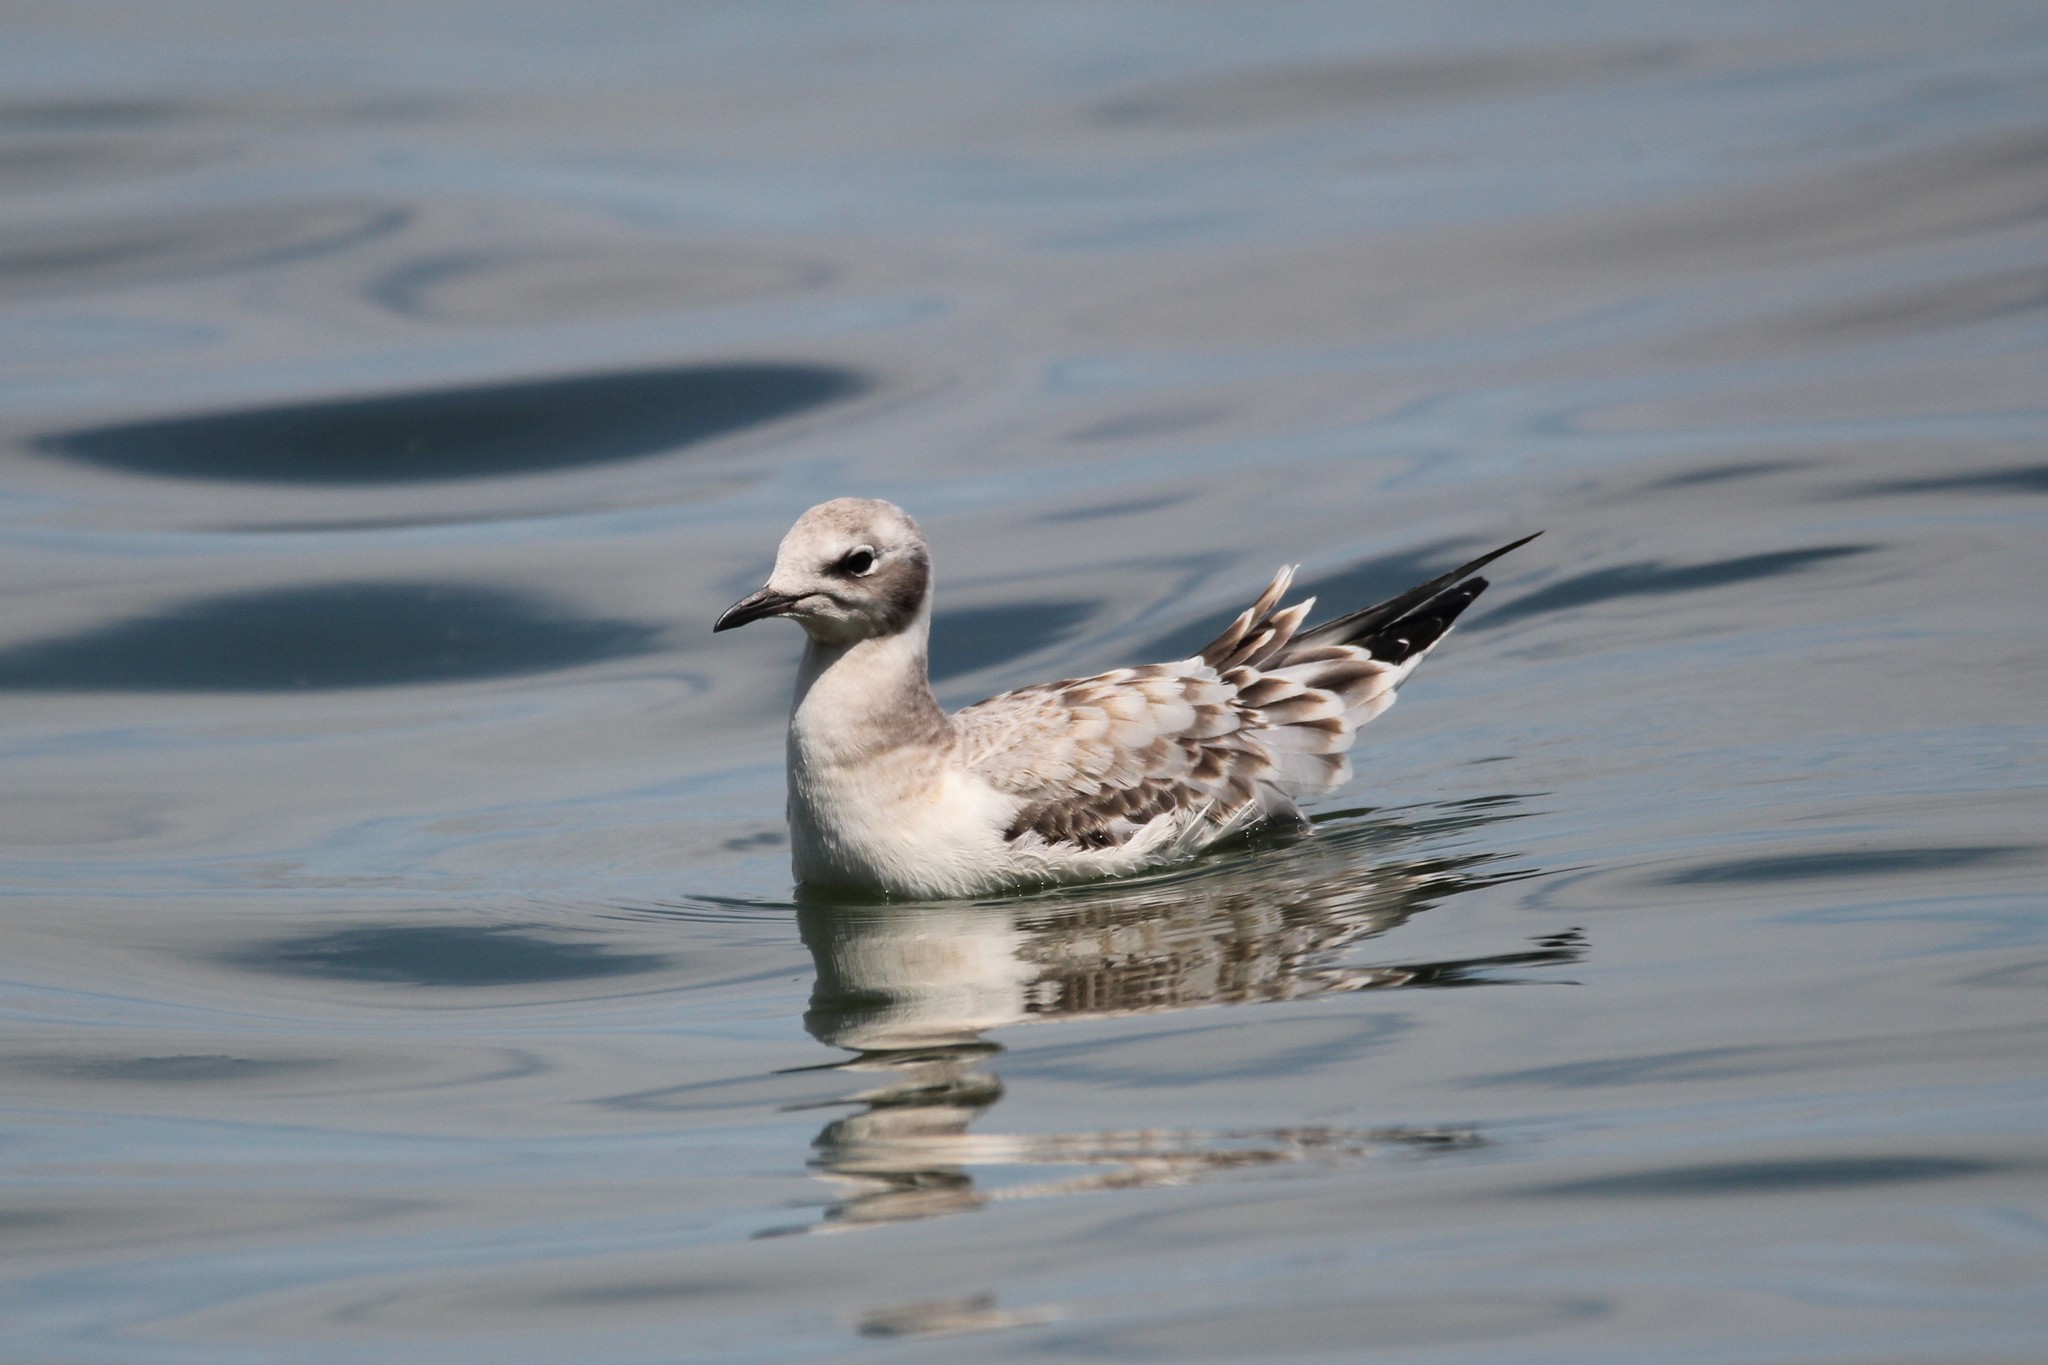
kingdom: Animalia
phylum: Chordata
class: Aves
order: Charadriiformes
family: Laridae
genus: Chroicocephalus
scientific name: Chroicocephalus philadelphia
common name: Bonaparte's gull
